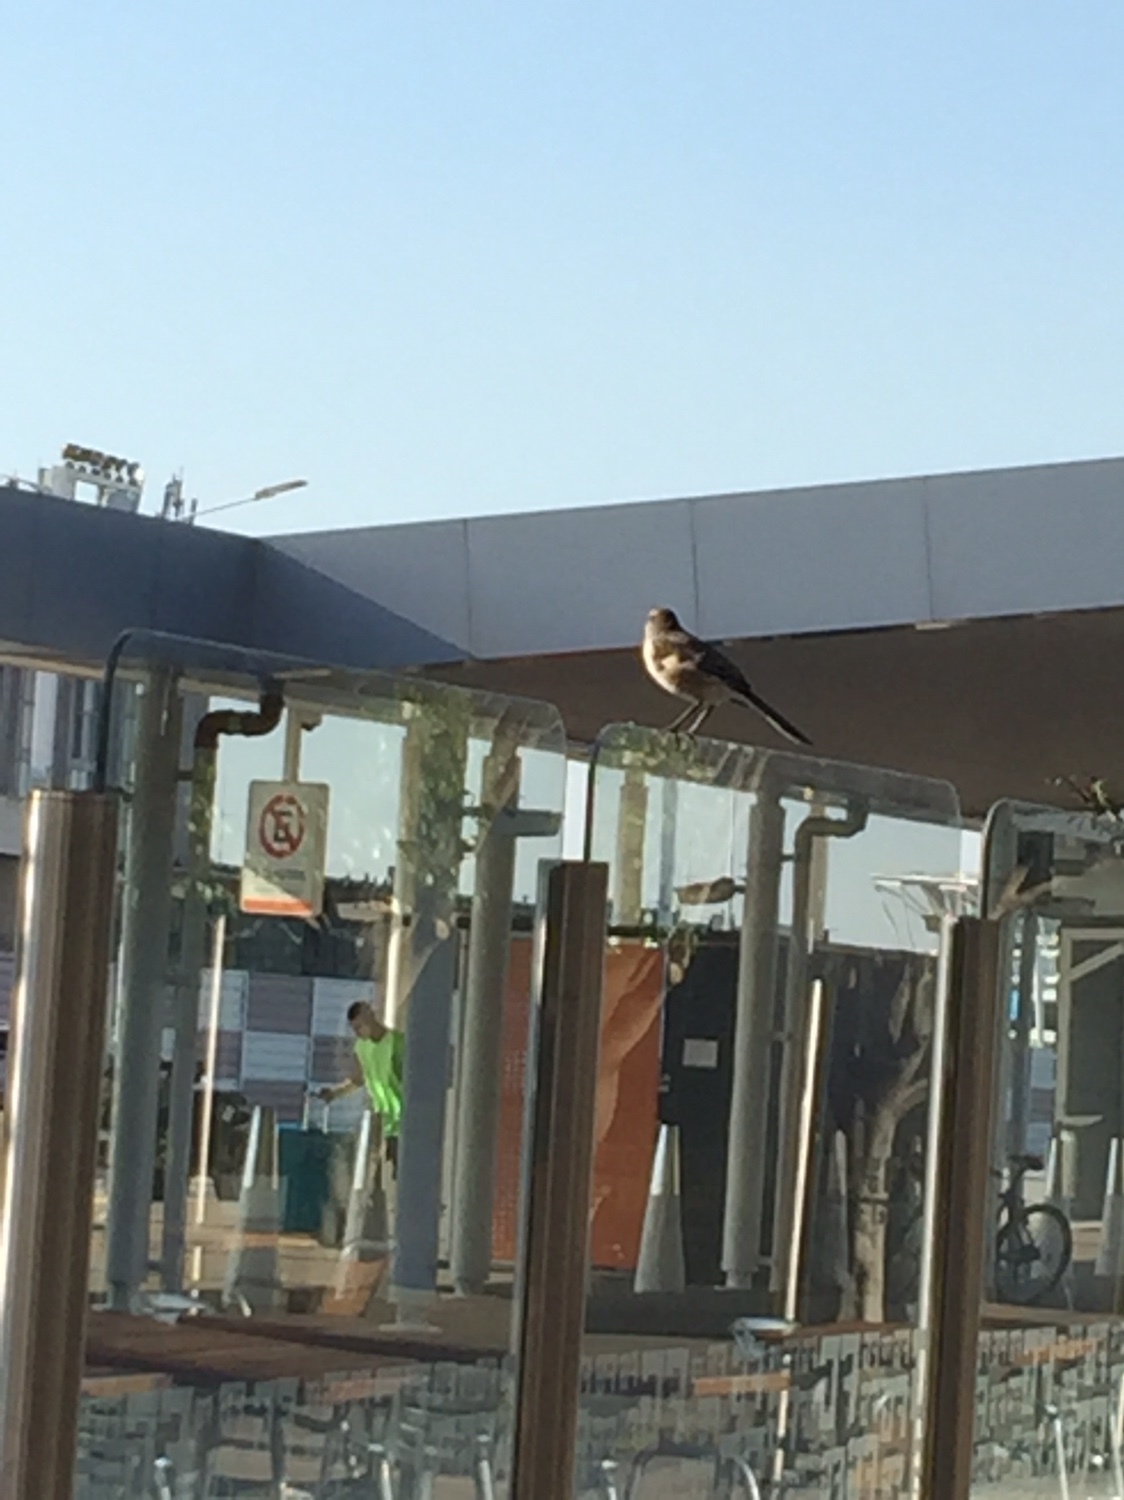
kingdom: Animalia
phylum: Chordata
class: Aves
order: Passeriformes
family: Mimidae
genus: Mimus
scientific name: Mimus saturninus
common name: Chalk-browed mockingbird
